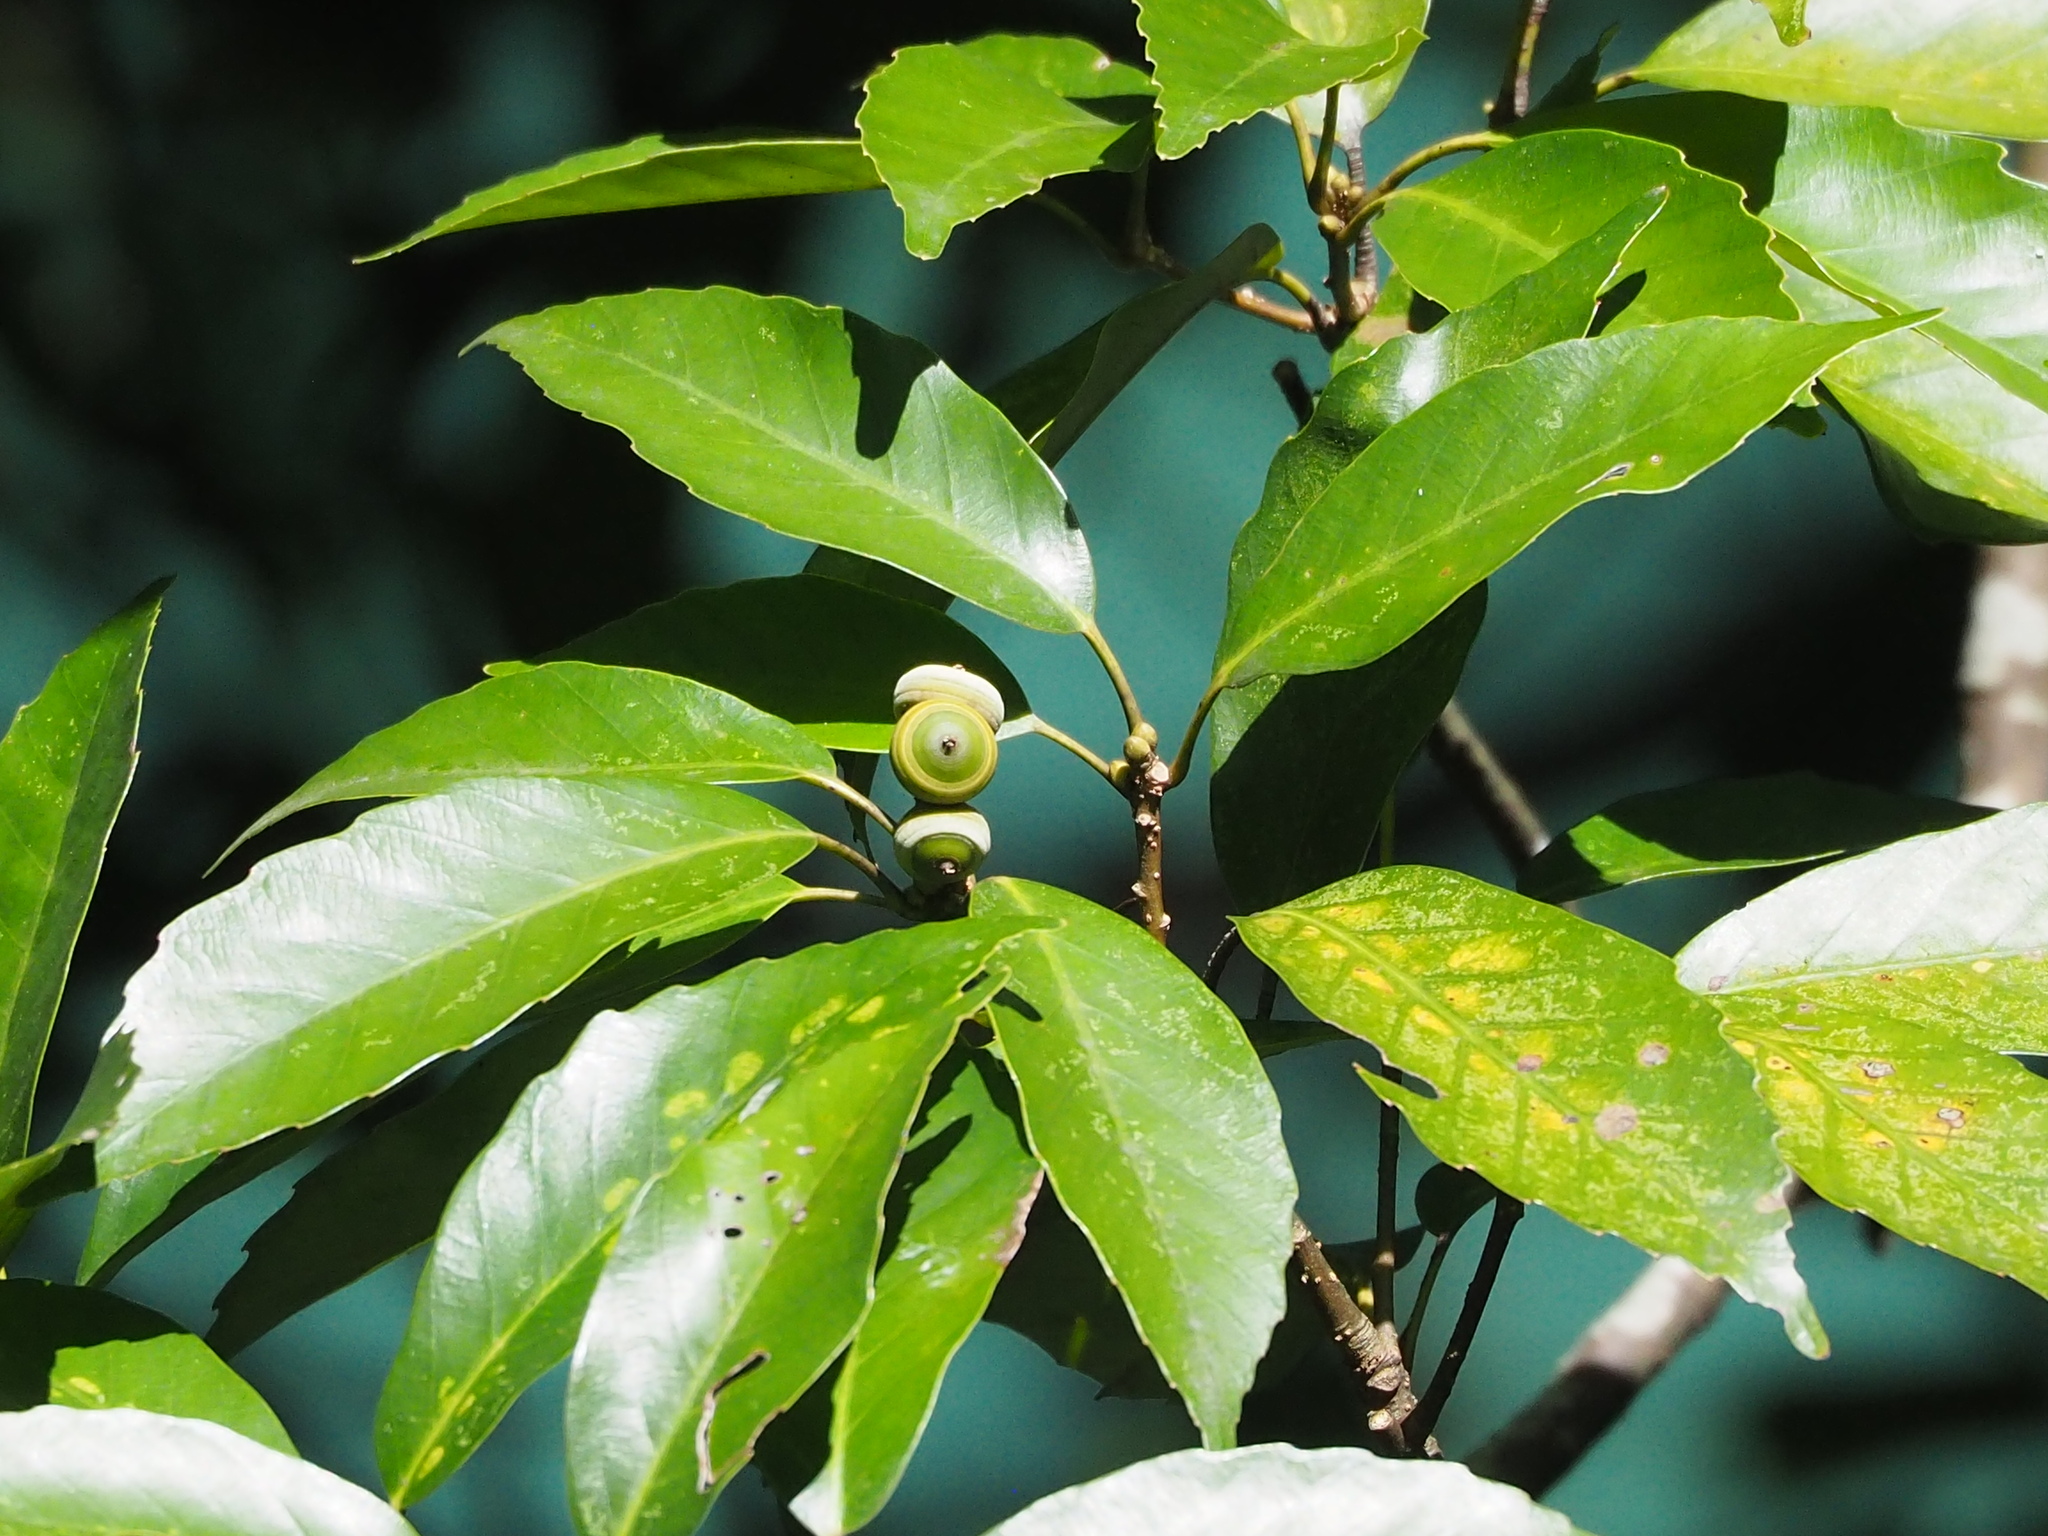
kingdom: Plantae
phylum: Tracheophyta
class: Magnoliopsida
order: Fagales
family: Fagaceae
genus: Quercus
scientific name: Quercus glauca
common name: Ring-cup oak
